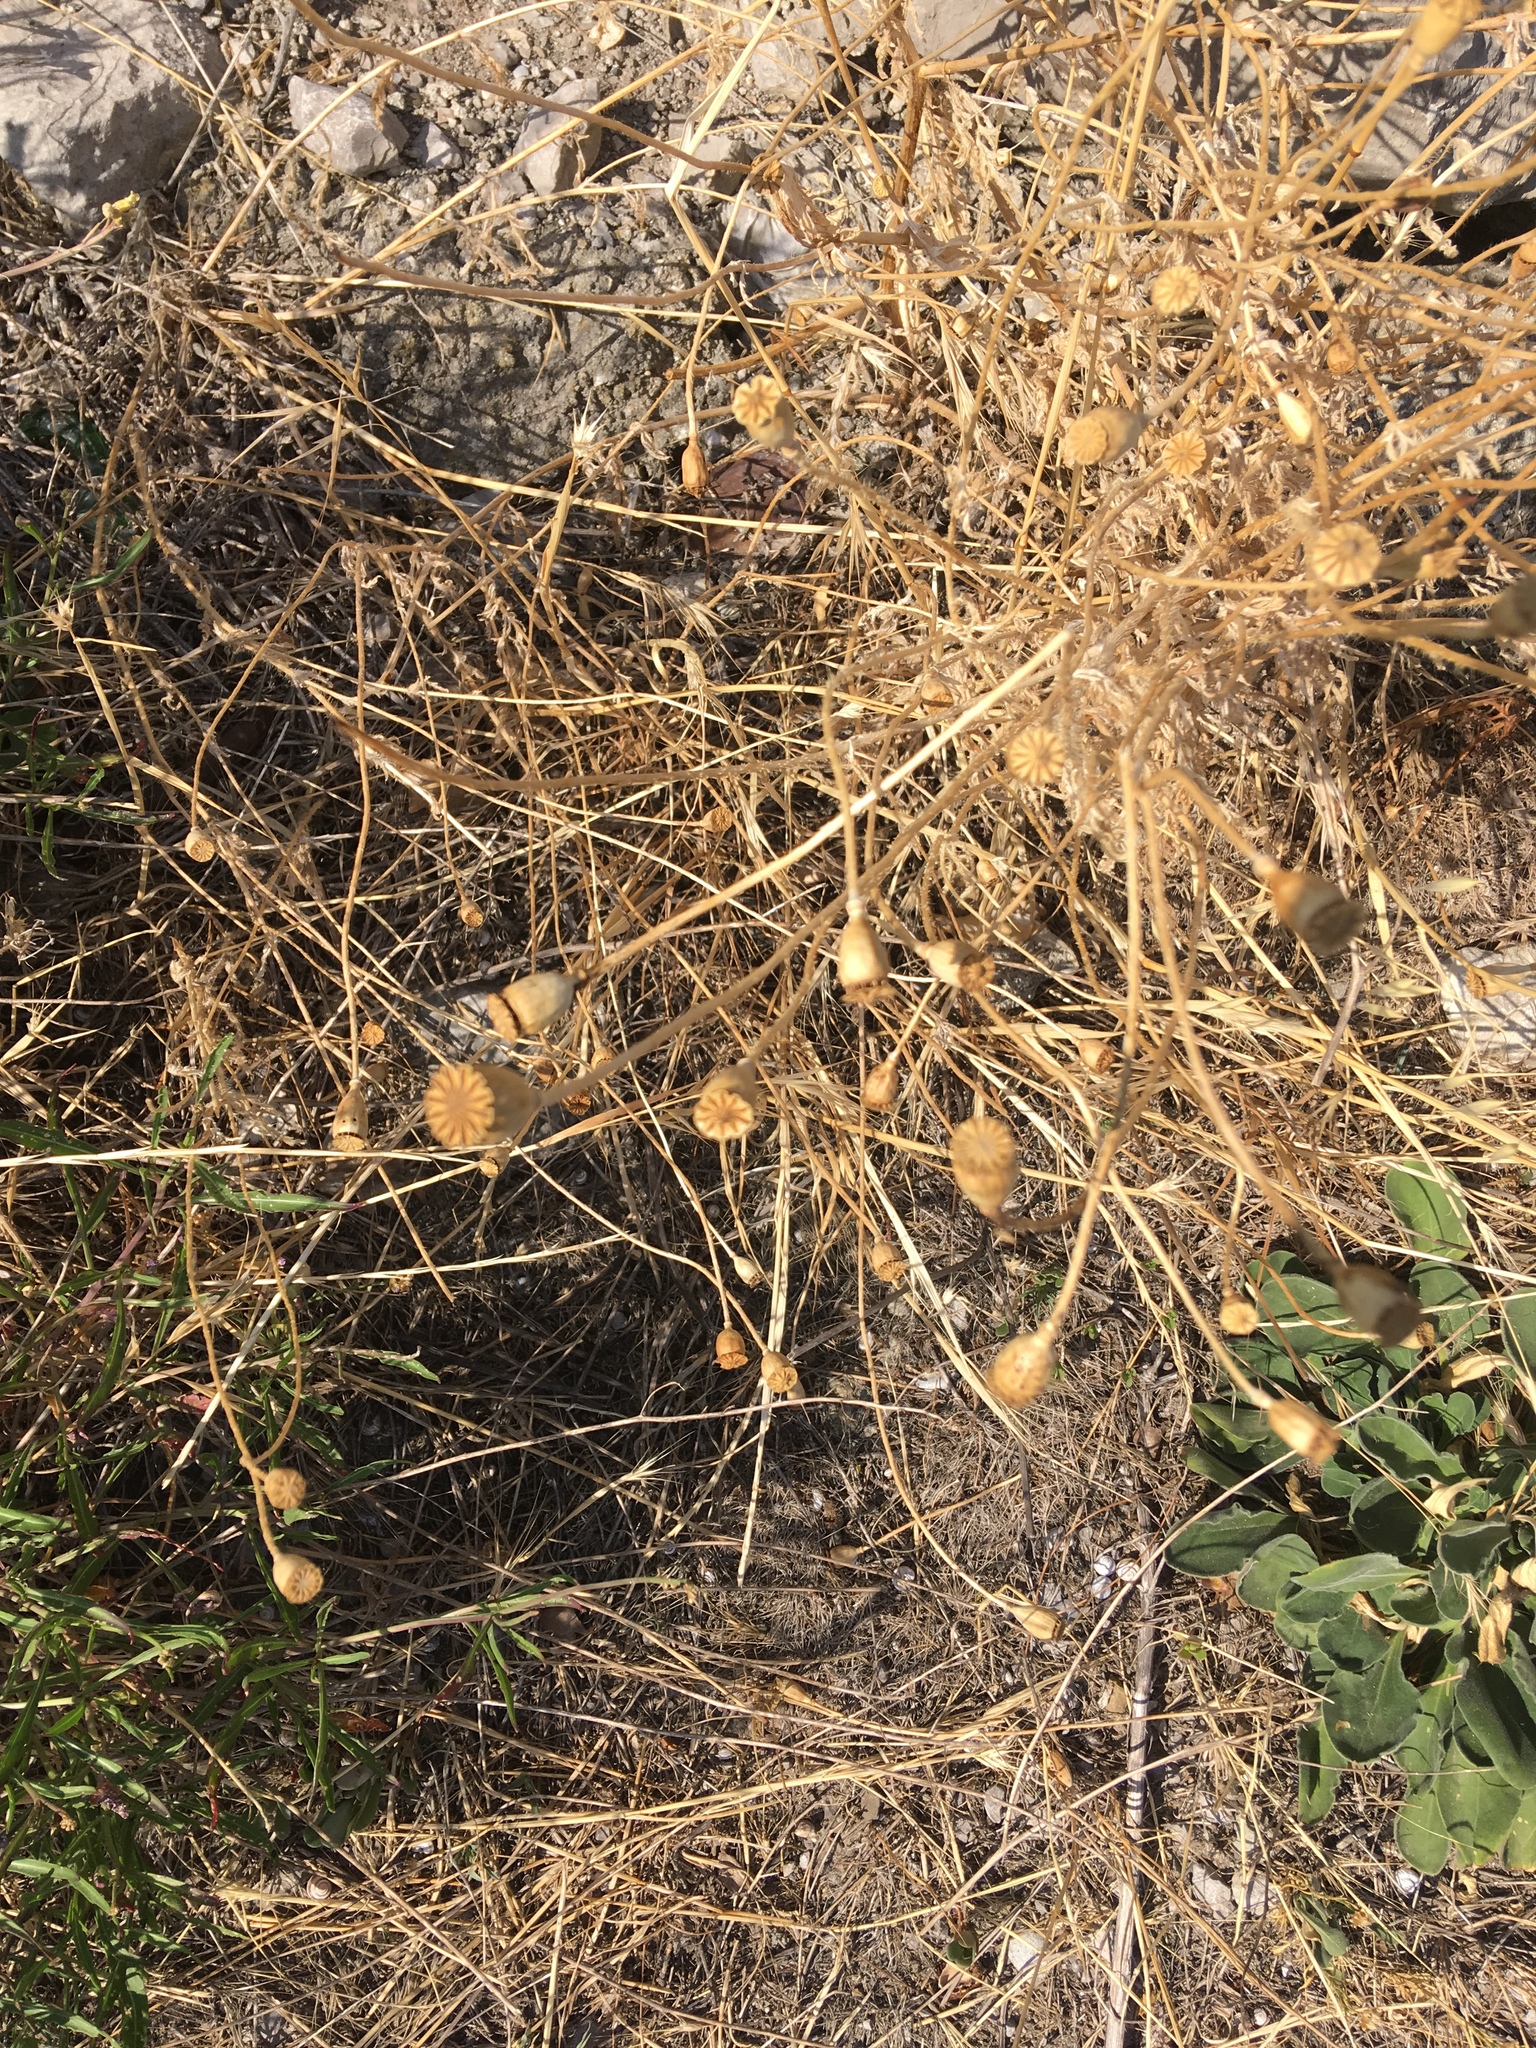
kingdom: Plantae
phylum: Tracheophyta
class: Magnoliopsida
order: Ranunculales
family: Papaveraceae
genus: Papaver
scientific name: Papaver rhoeas
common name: Corn poppy
